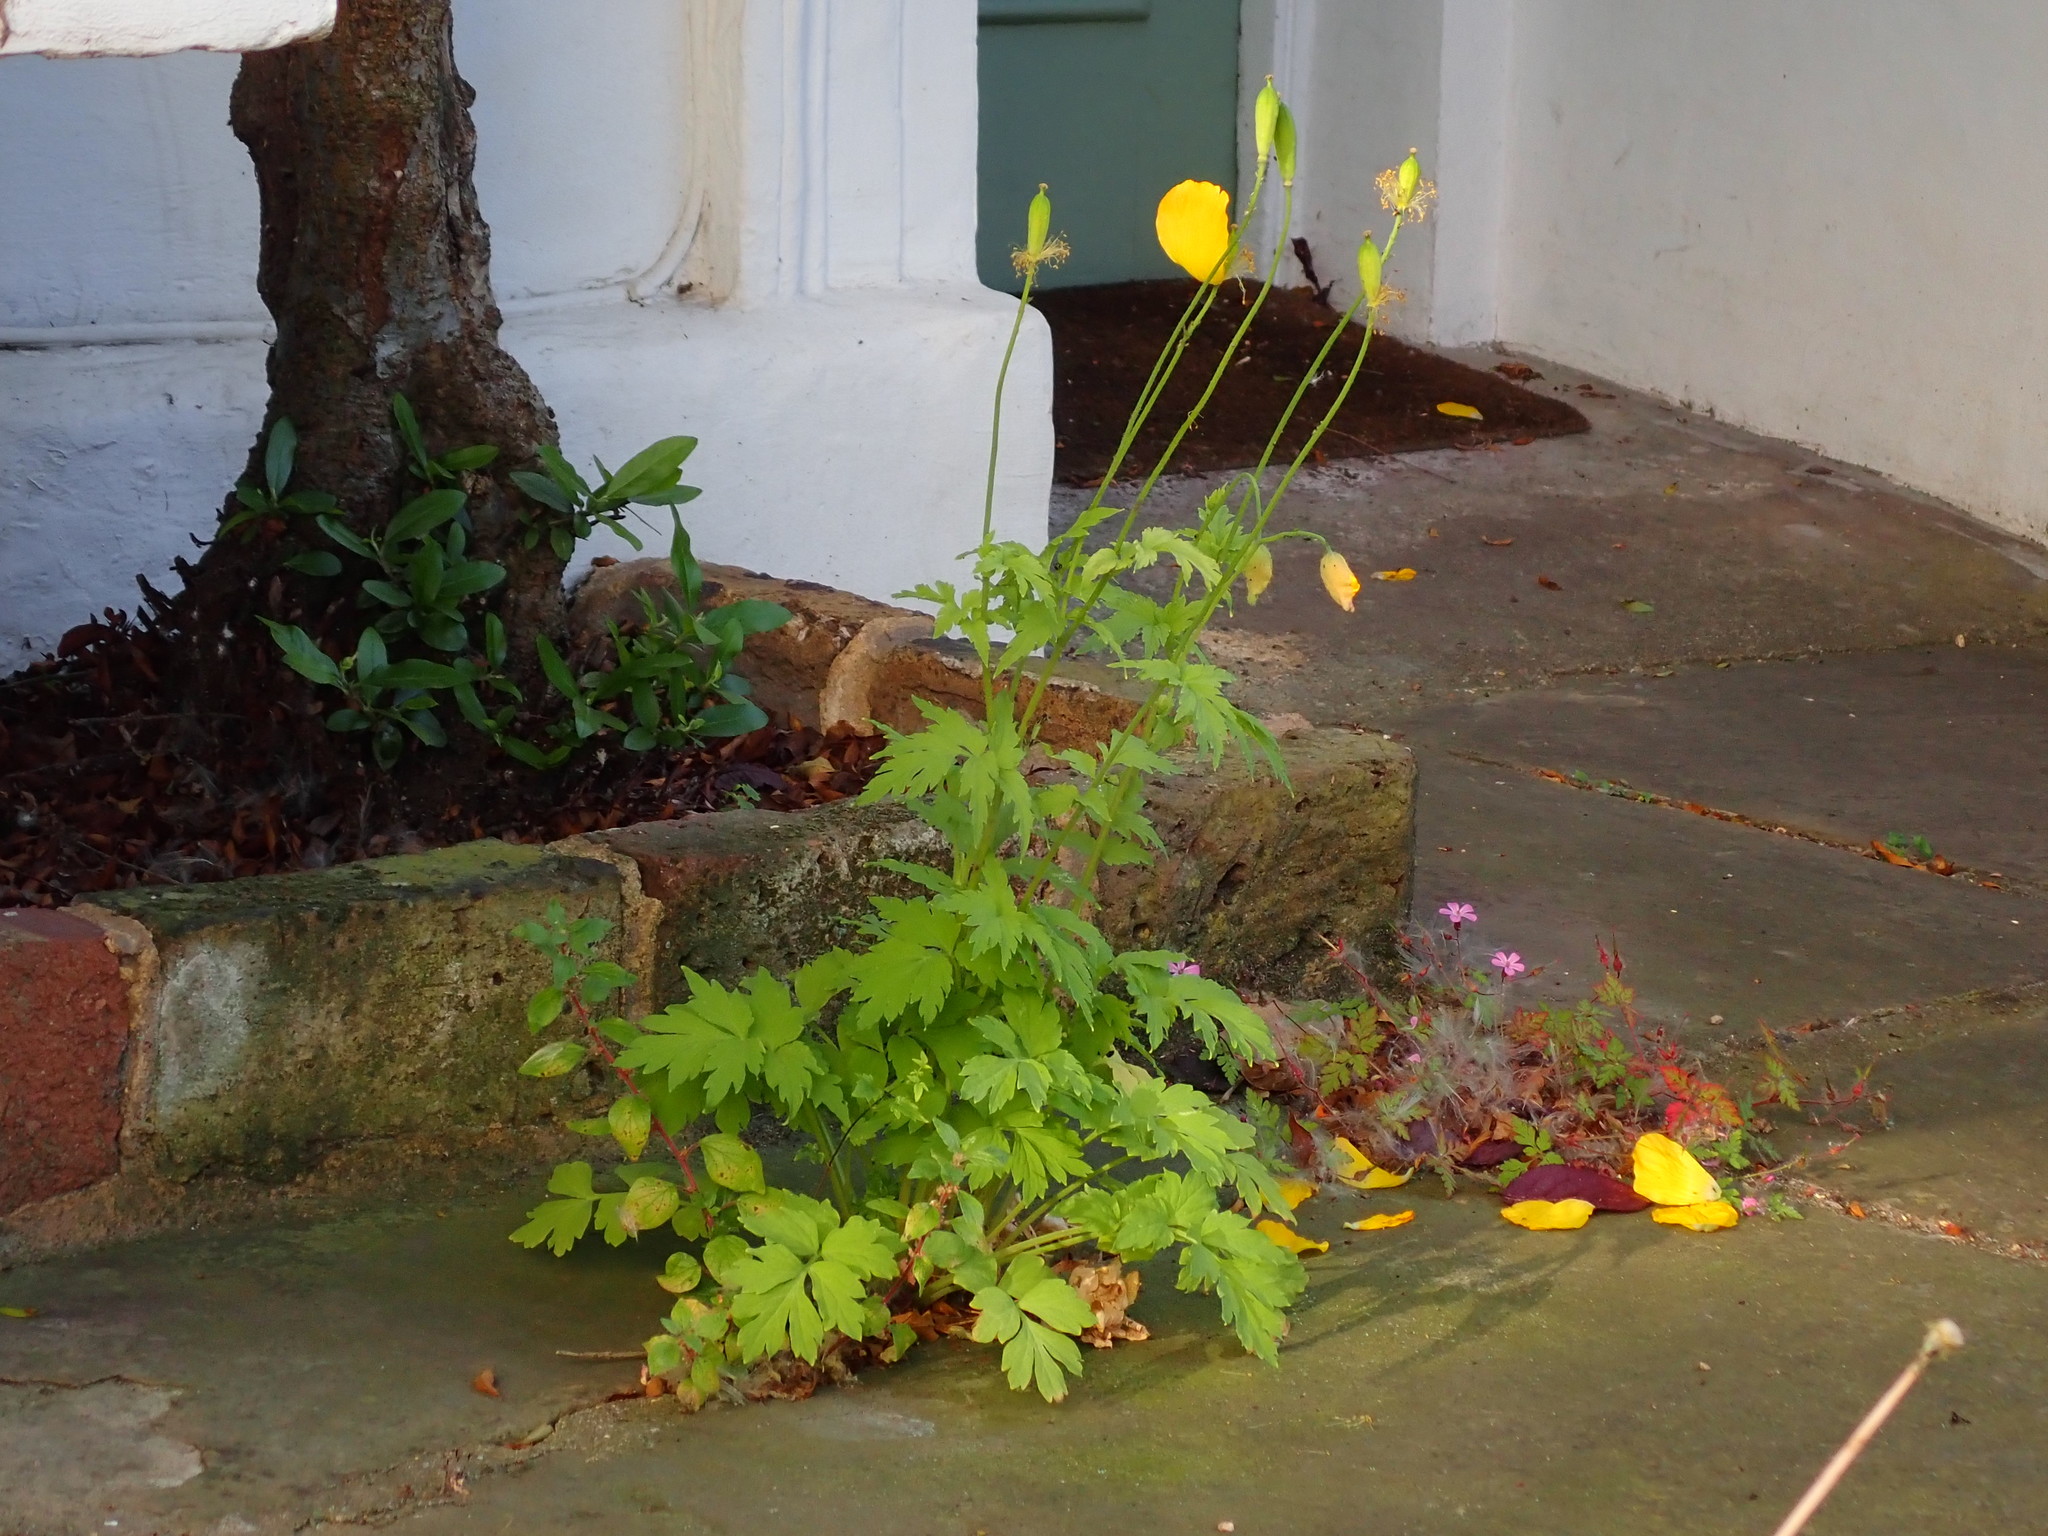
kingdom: Plantae
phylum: Tracheophyta
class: Magnoliopsida
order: Ranunculales
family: Papaveraceae
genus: Papaver
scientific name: Papaver cambricum
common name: Poppy
